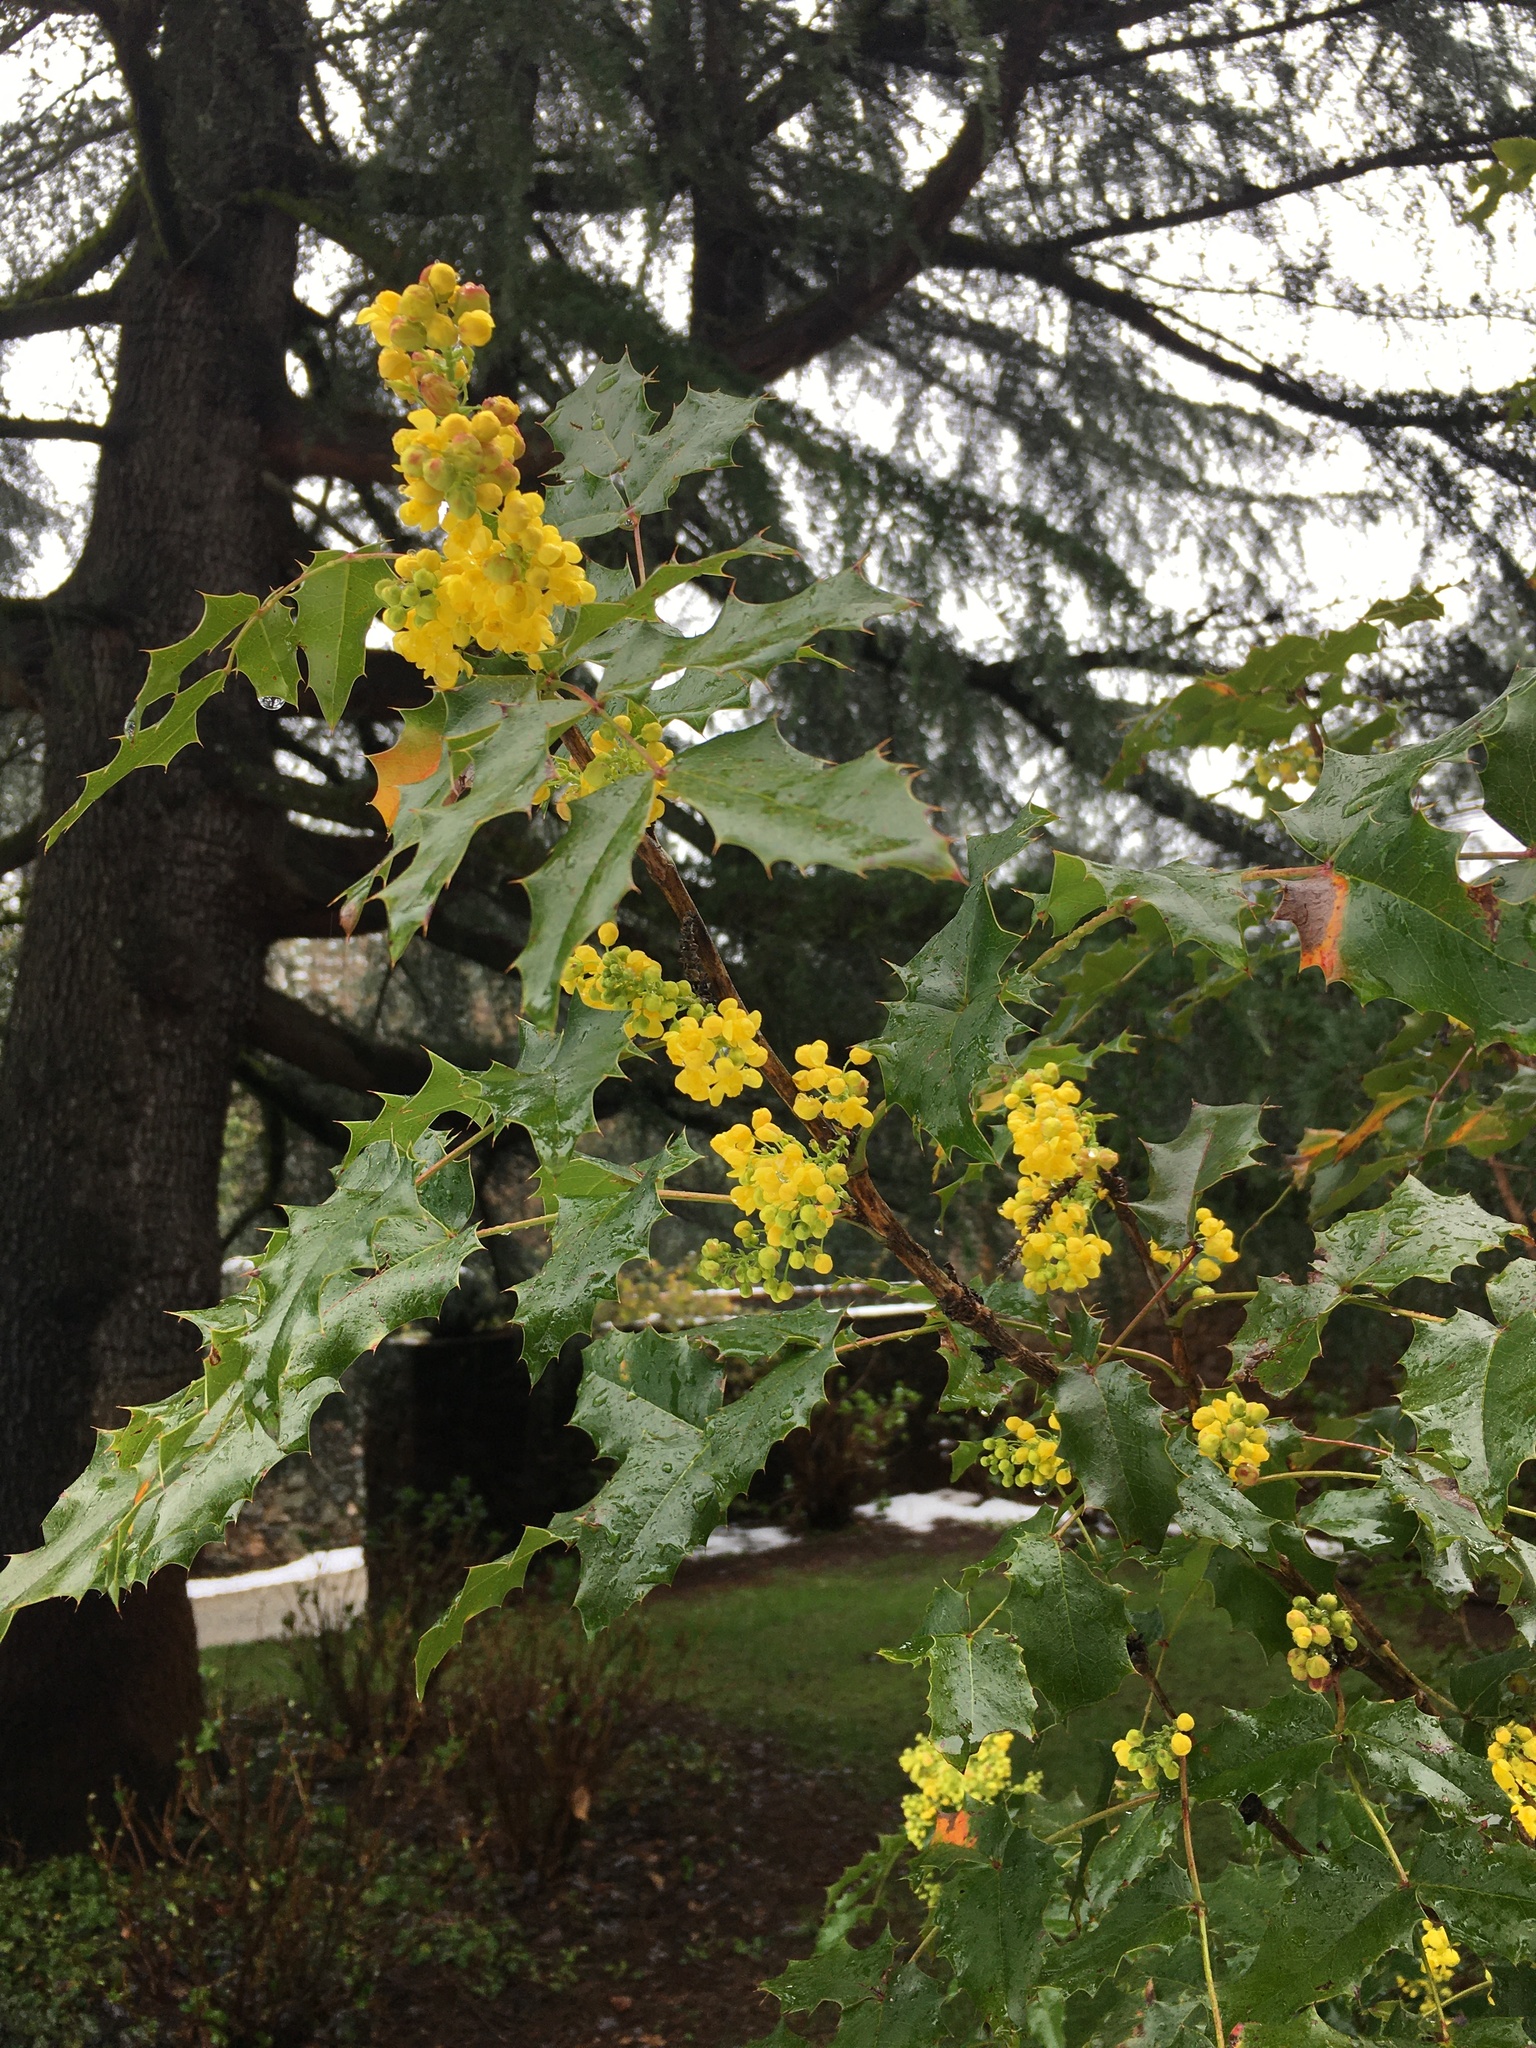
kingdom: Plantae
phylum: Tracheophyta
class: Magnoliopsida
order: Ranunculales
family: Berberidaceae
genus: Mahonia
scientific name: Mahonia aquifolium
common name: Oregon-grape
